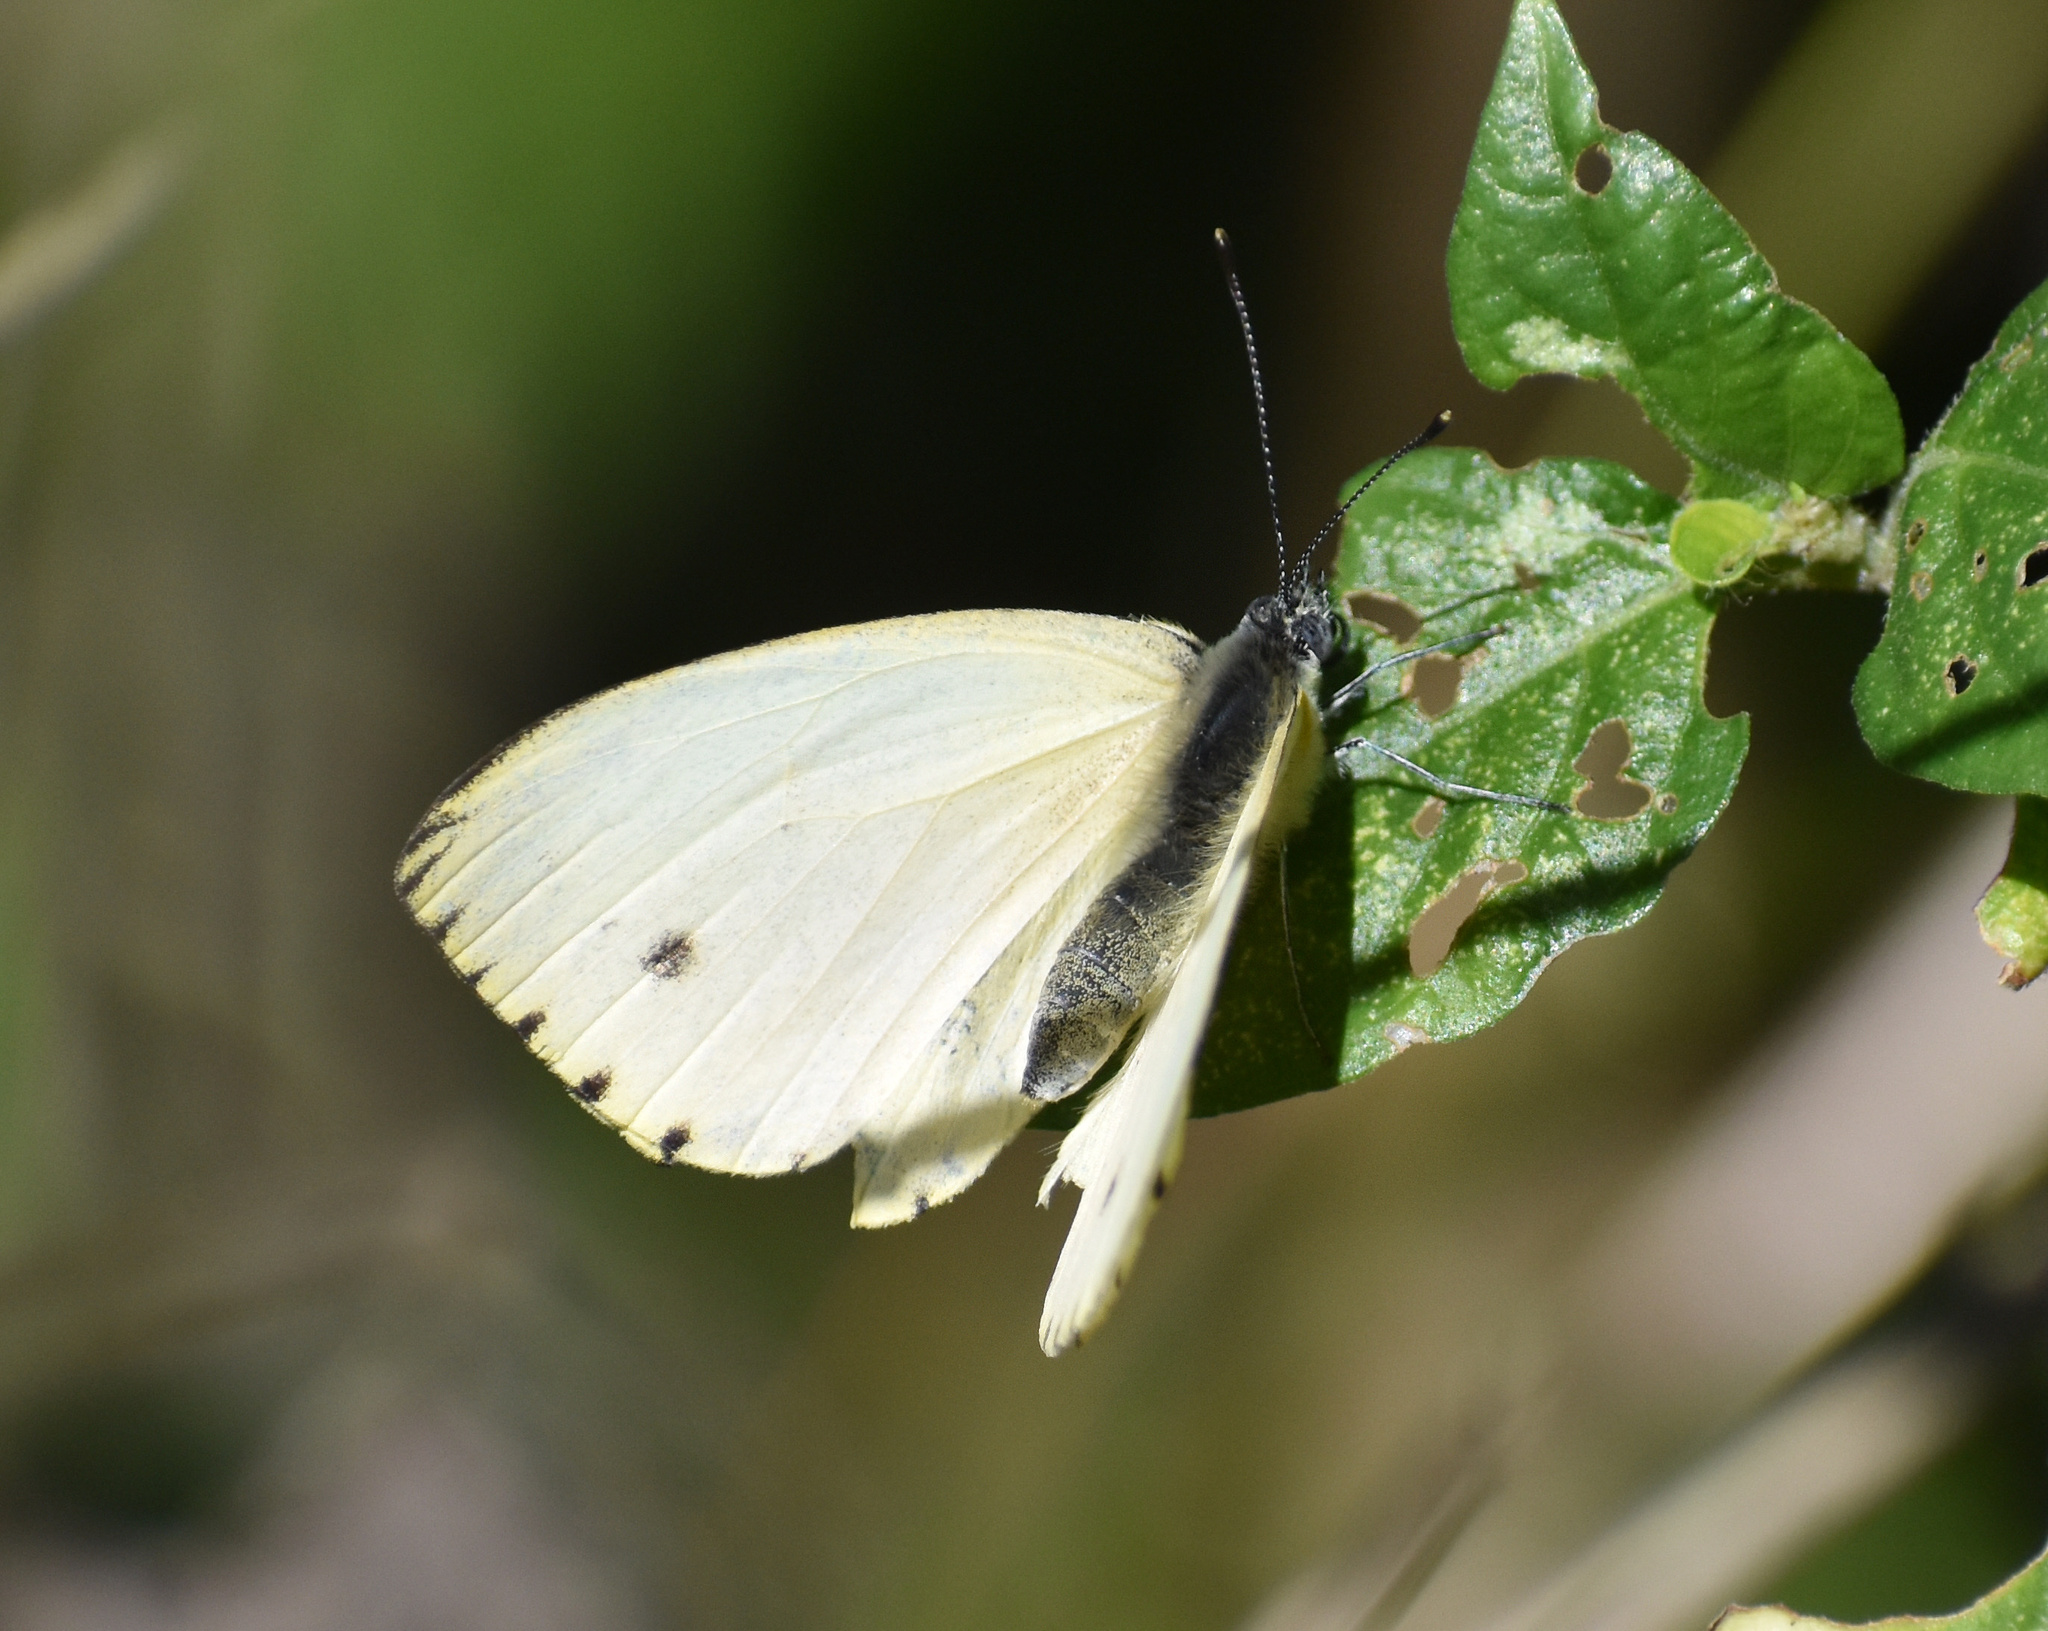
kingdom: Animalia
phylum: Arthropoda
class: Insecta
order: Lepidoptera
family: Pieridae
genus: Dixeia
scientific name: Dixeia pigea
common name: Ant-heap small white
